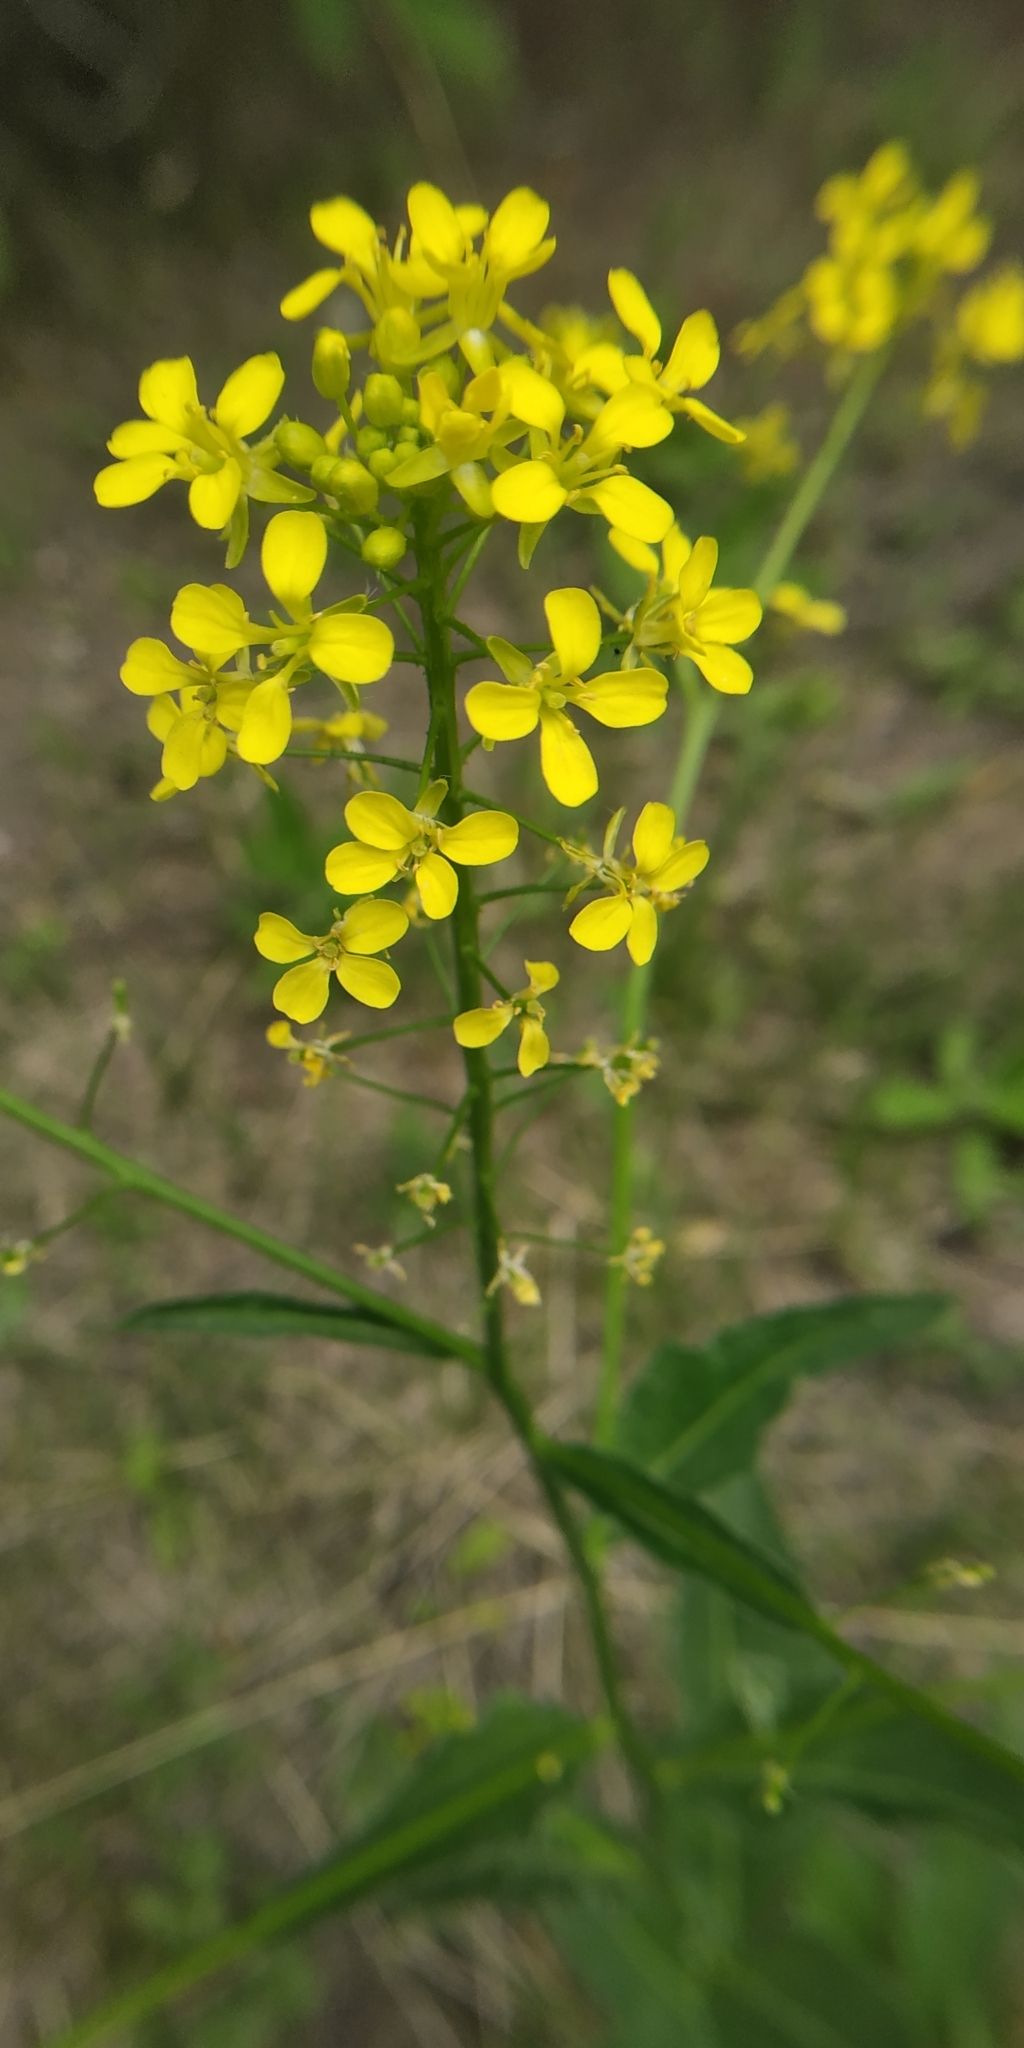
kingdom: Plantae
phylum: Tracheophyta
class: Magnoliopsida
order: Brassicales
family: Brassicaceae
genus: Bunias
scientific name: Bunias orientalis
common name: Warty-cabbage
